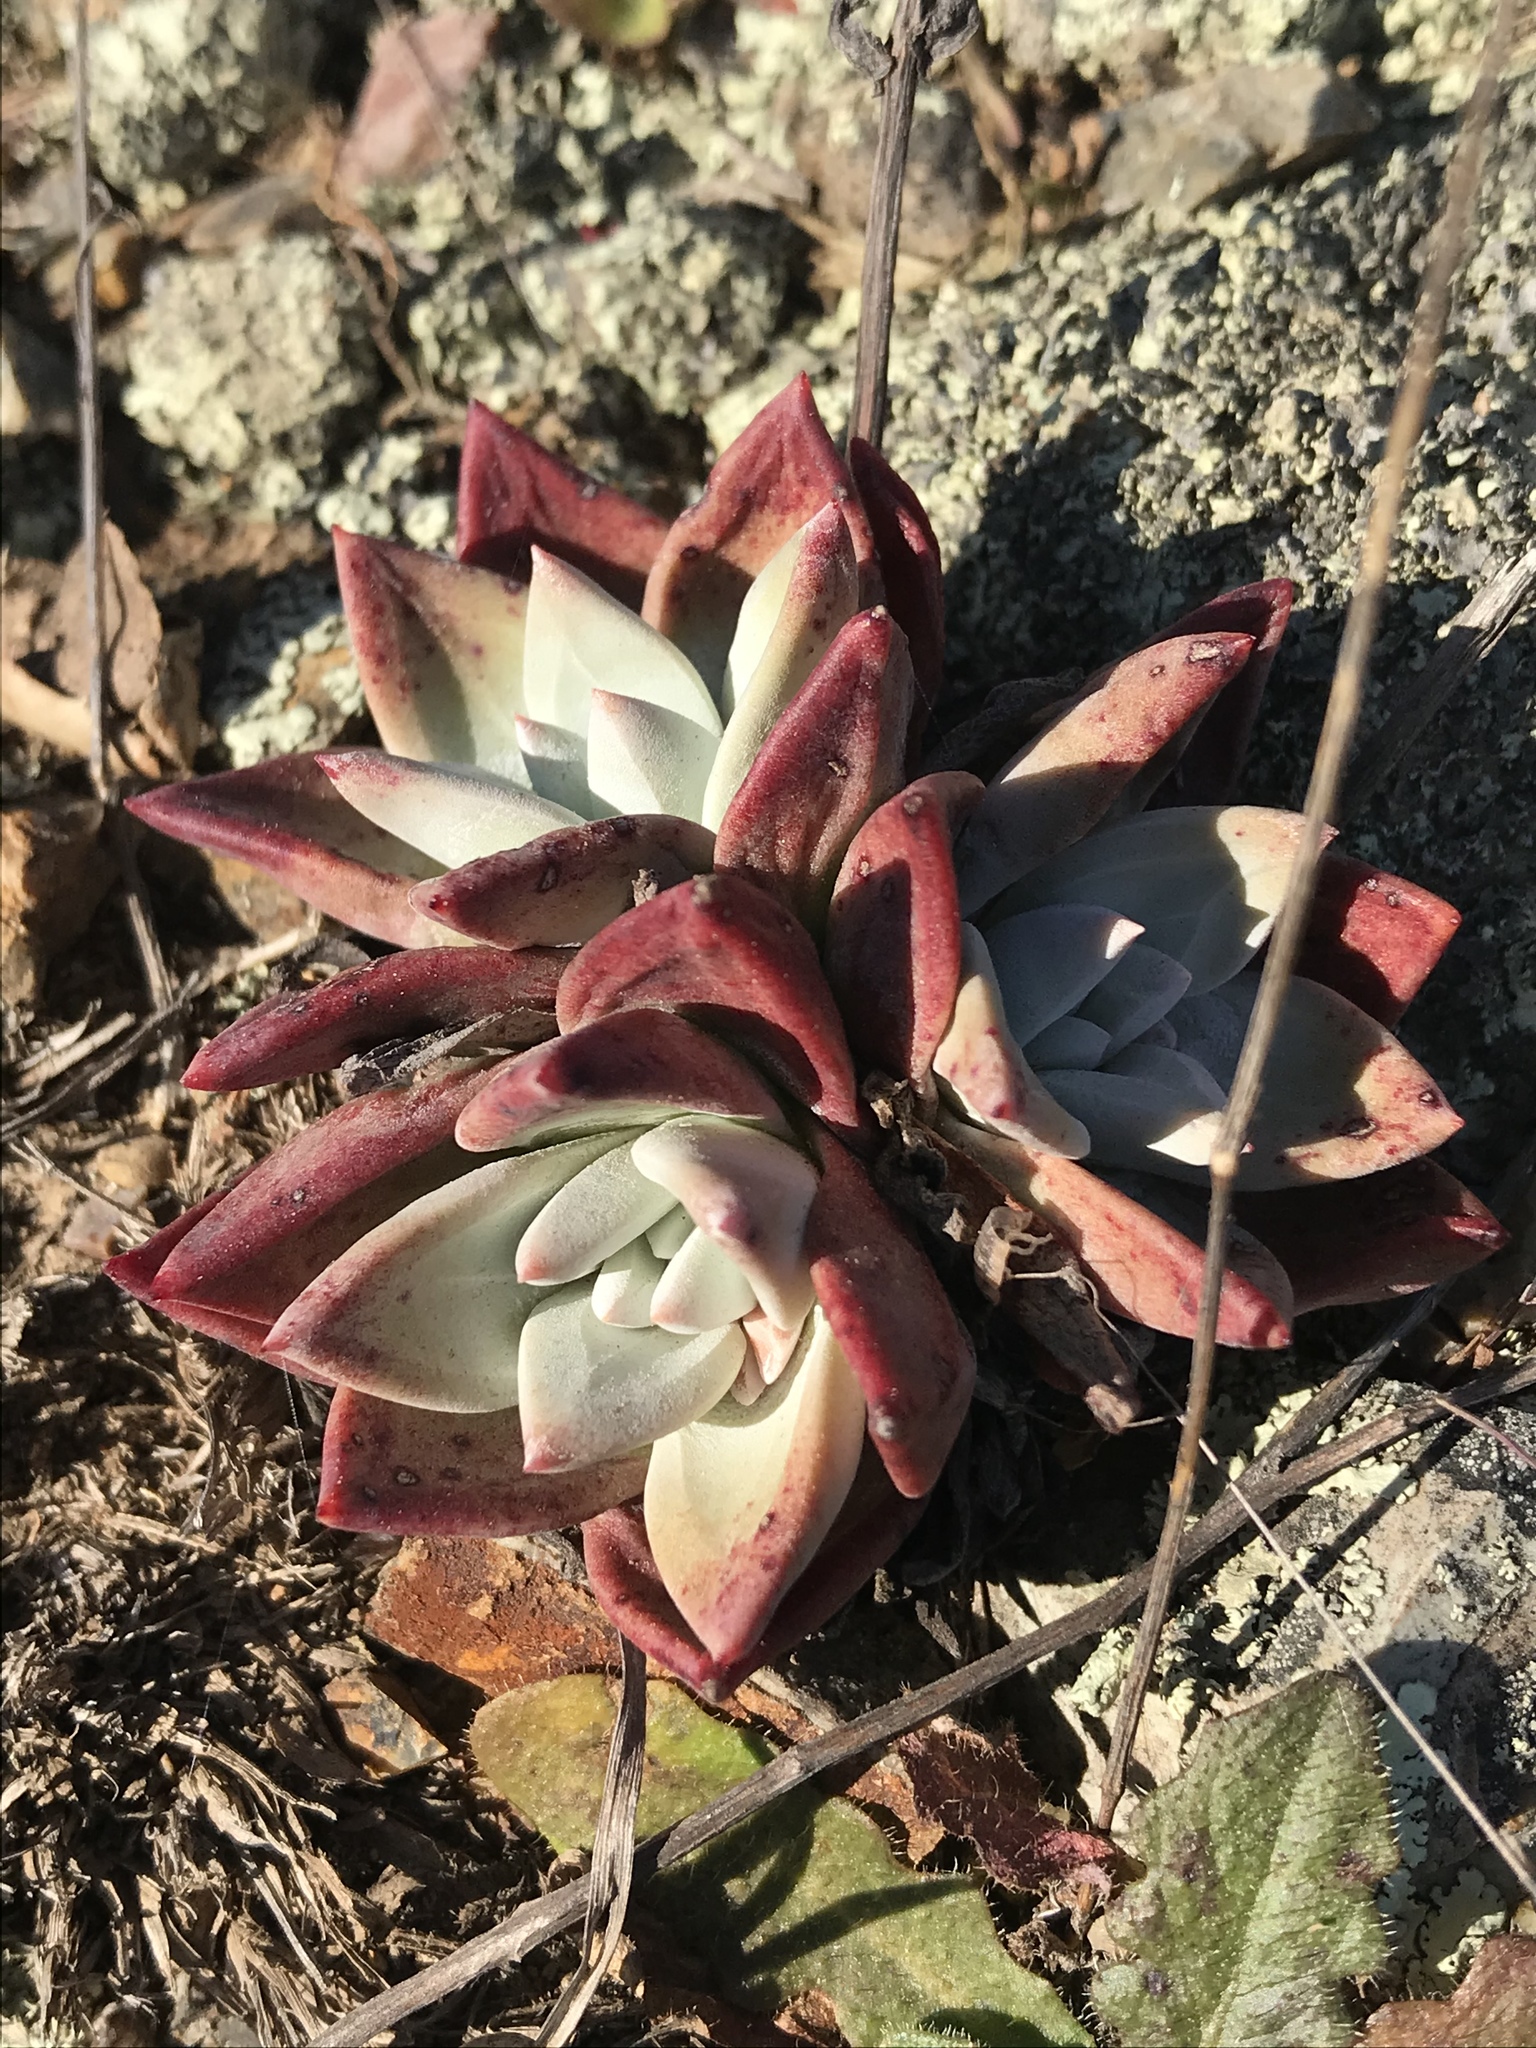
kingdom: Plantae
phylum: Tracheophyta
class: Magnoliopsida
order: Saxifragales
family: Crassulaceae
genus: Dudleya
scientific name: Dudleya farinosa
